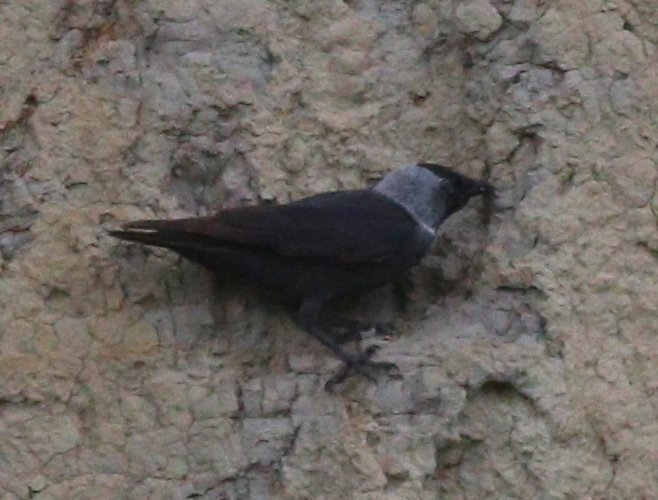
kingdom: Animalia
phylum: Chordata
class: Aves
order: Passeriformes
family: Corvidae
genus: Coloeus
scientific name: Coloeus monedula
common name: Western jackdaw
